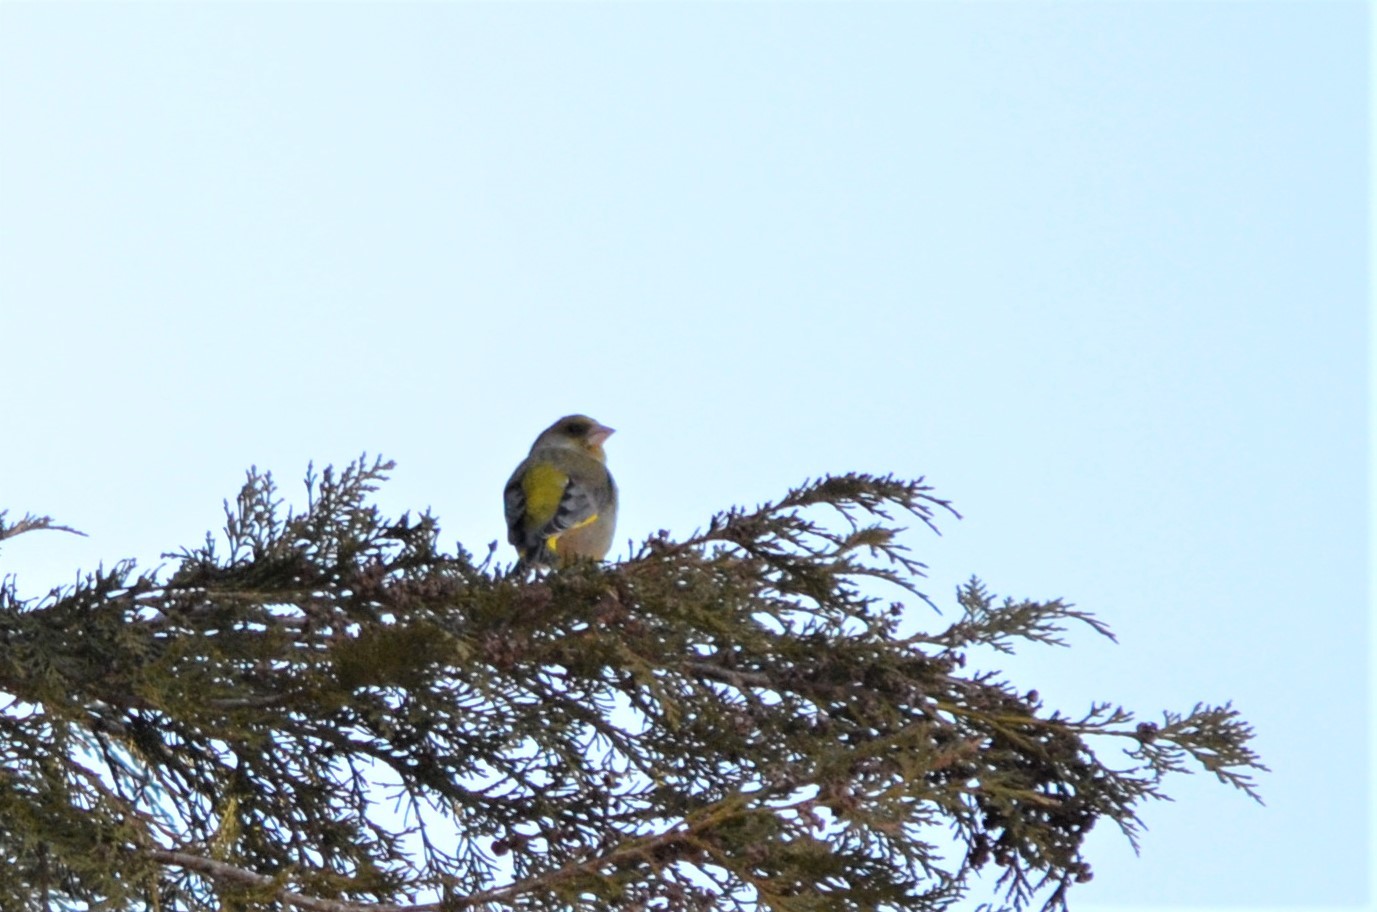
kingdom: Plantae
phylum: Tracheophyta
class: Liliopsida
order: Poales
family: Poaceae
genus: Chloris
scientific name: Chloris chloris
